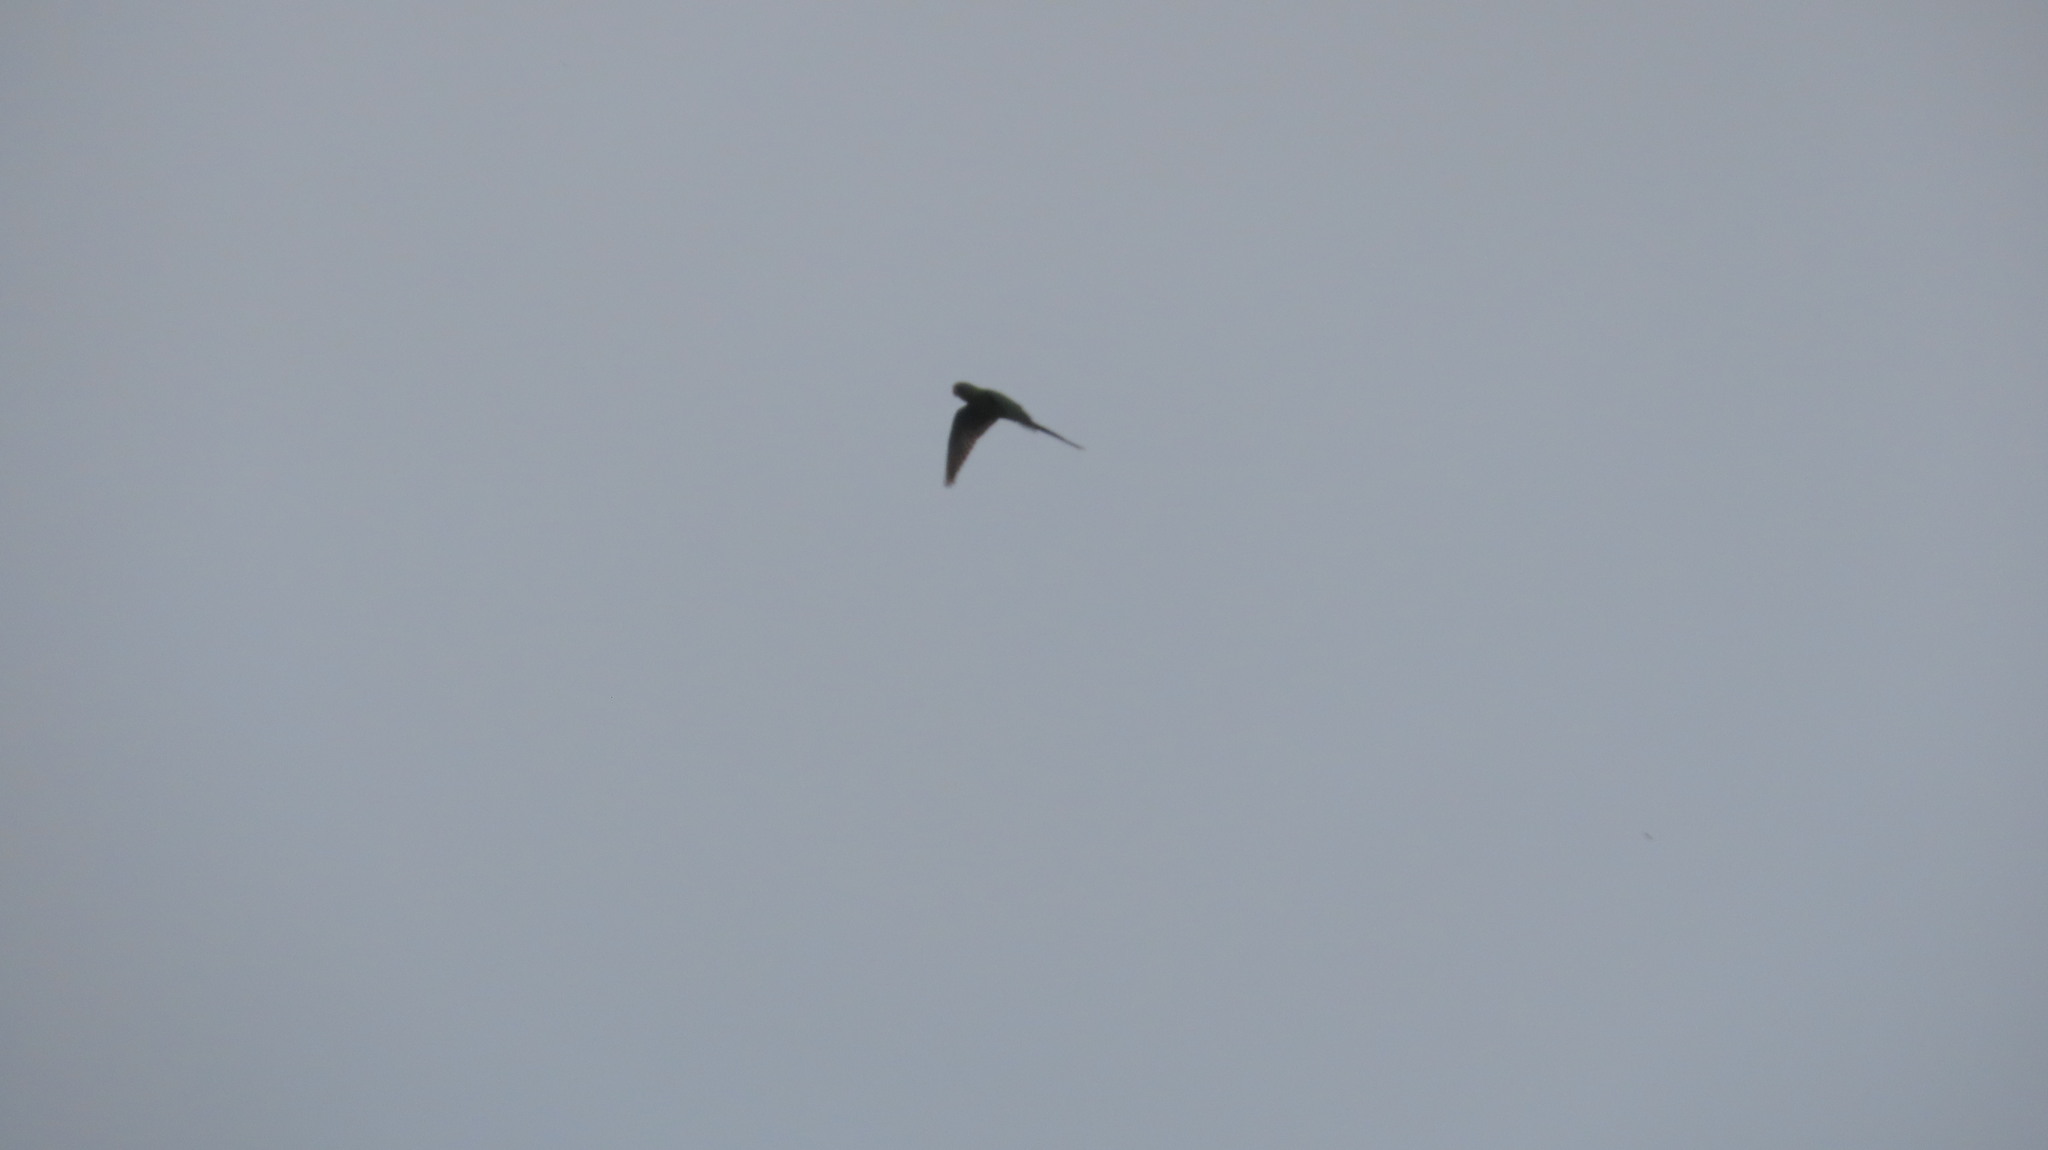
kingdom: Animalia
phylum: Chordata
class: Aves
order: Psittaciformes
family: Psittacidae
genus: Psittacula
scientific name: Psittacula cyanocephala
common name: Plum-headed parakeet
